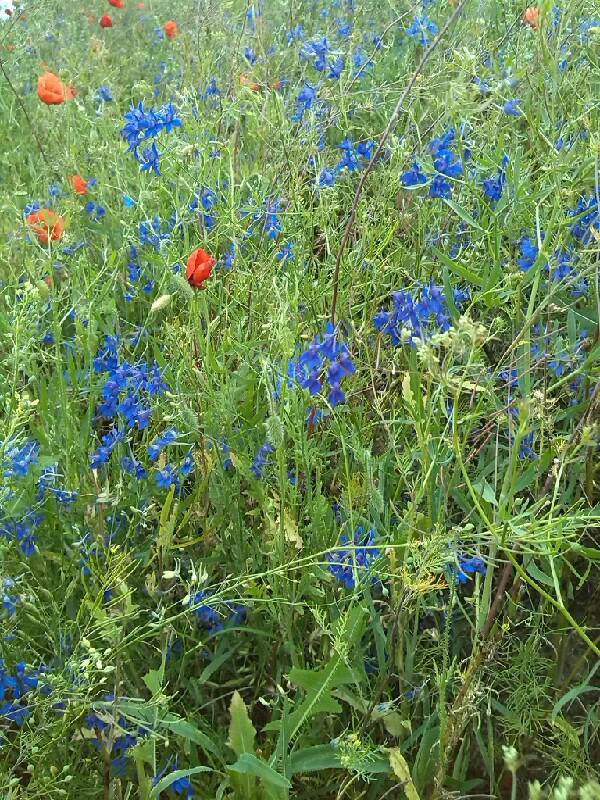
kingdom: Plantae
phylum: Tracheophyta
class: Magnoliopsida
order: Ranunculales
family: Ranunculaceae
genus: Delphinium
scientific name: Delphinium consolida
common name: Branching larkspur
